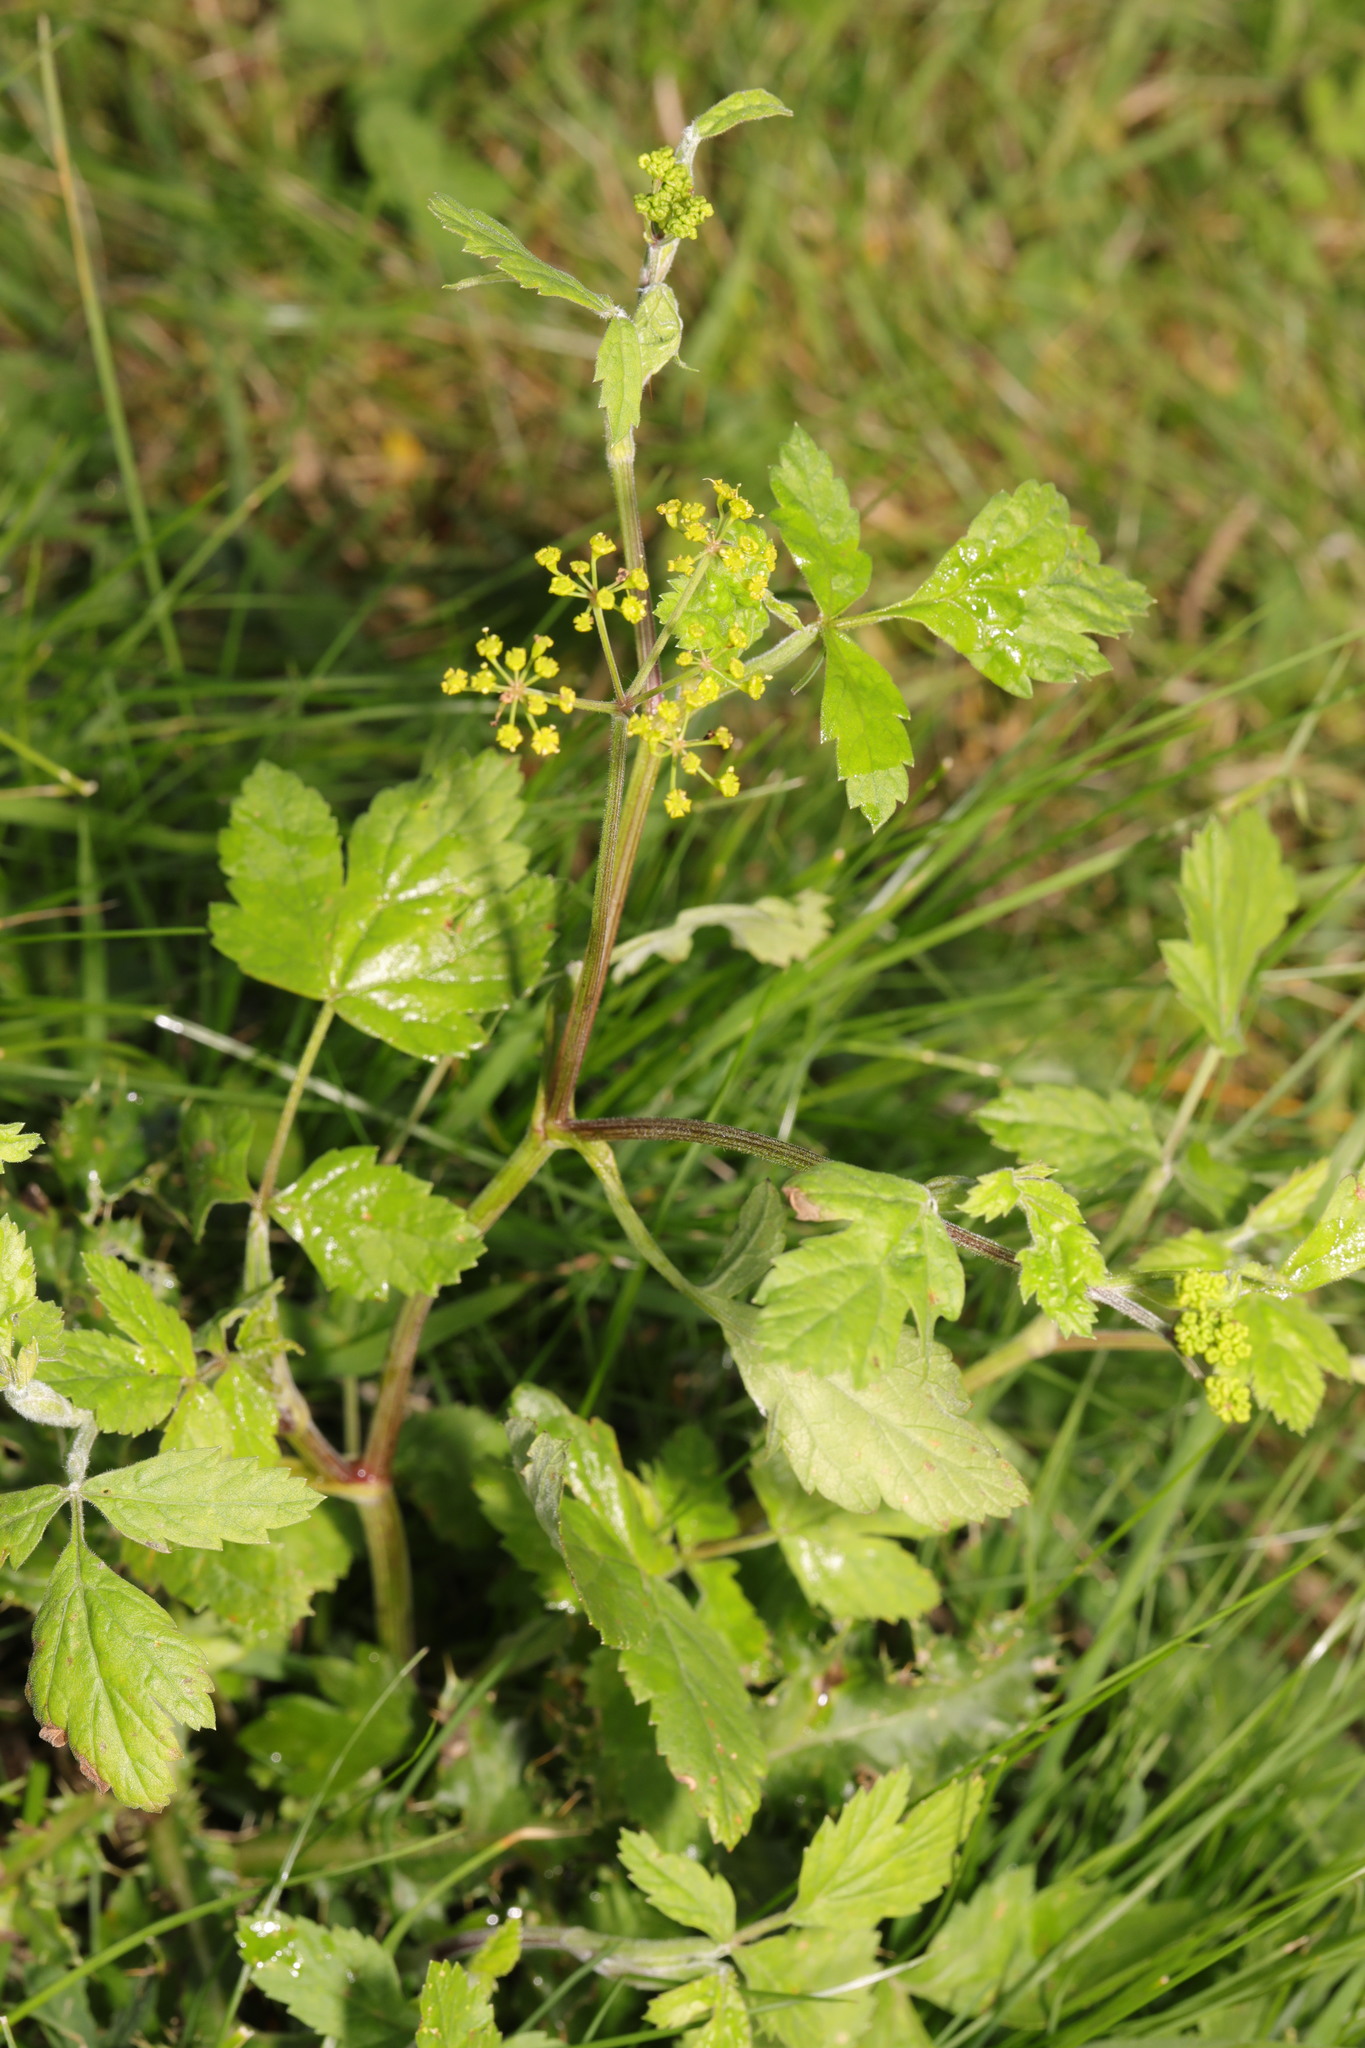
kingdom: Plantae
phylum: Tracheophyta
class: Magnoliopsida
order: Apiales
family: Apiaceae
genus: Pastinaca
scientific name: Pastinaca sativa
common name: Wild parsnip
